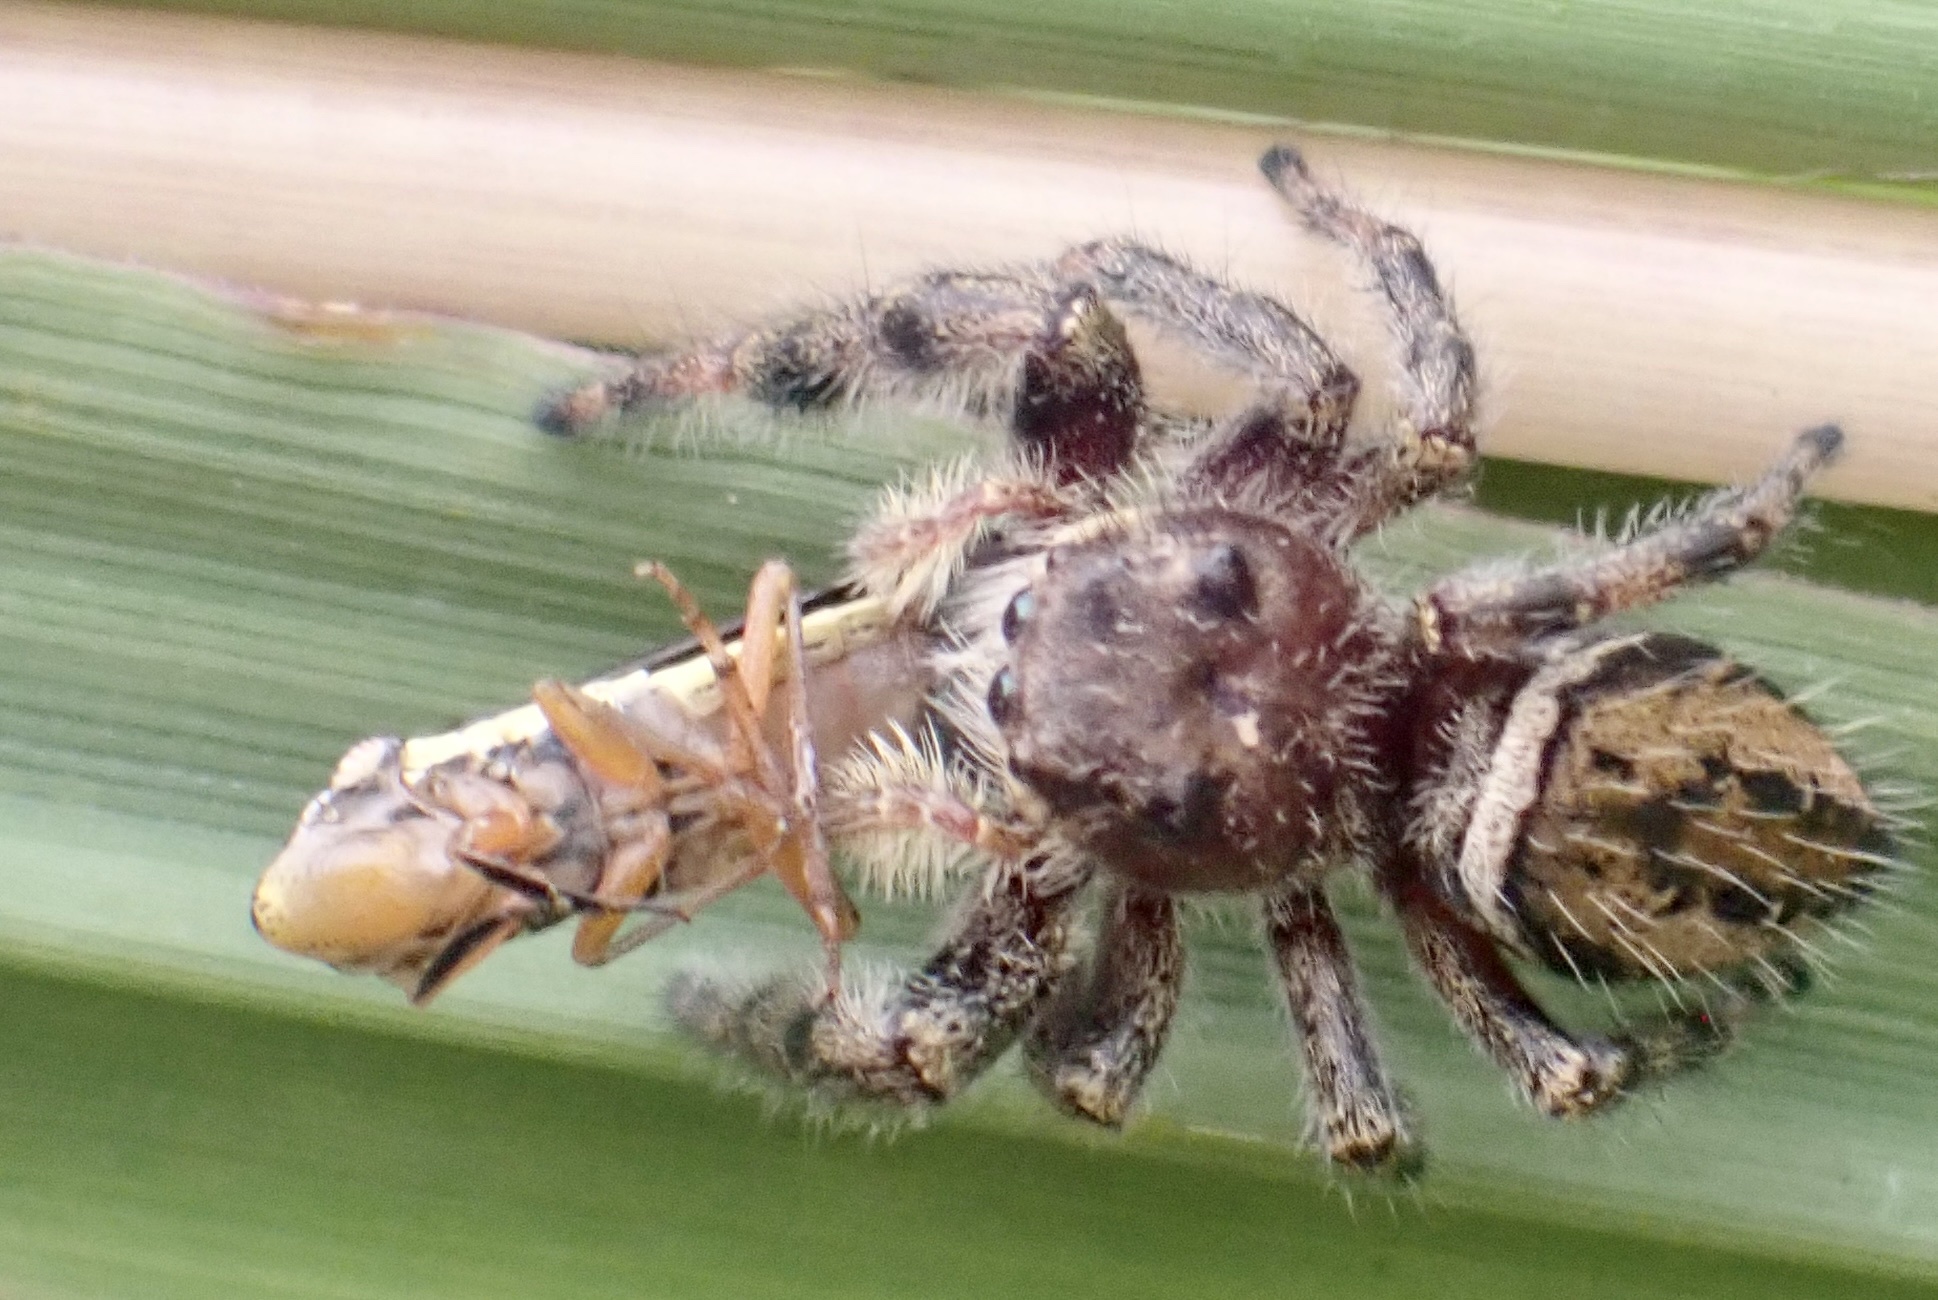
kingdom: Animalia
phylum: Arthropoda
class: Arachnida
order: Araneae
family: Salticidae
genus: Phidippus
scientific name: Phidippus clarus
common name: Brilliant jumping spider
